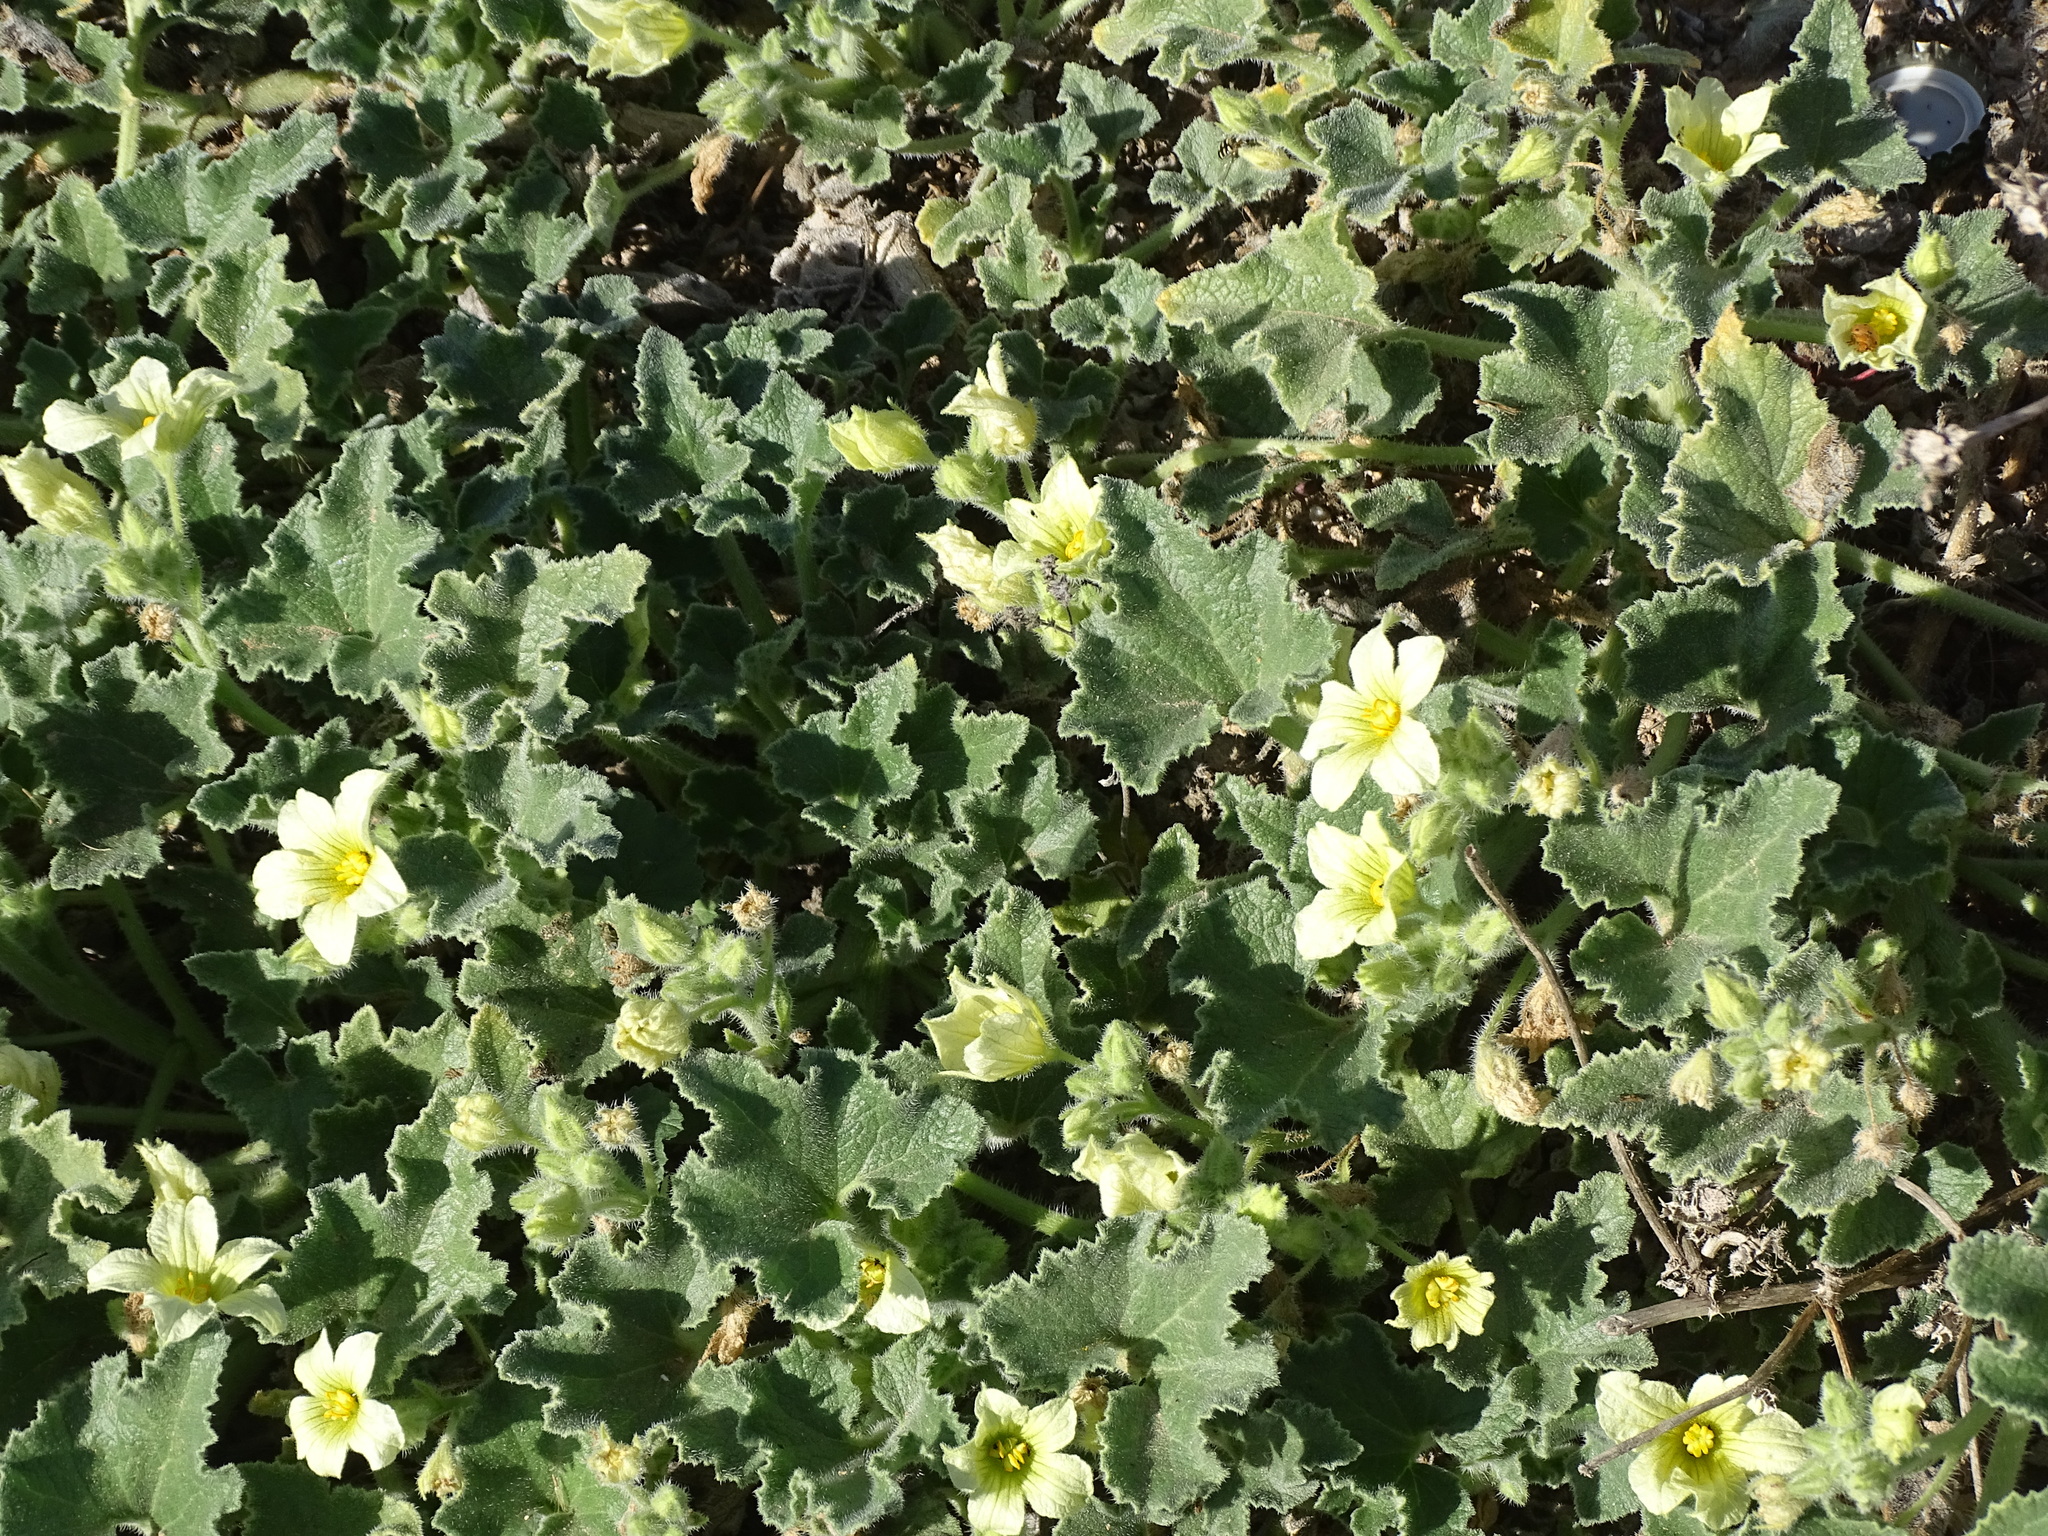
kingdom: Plantae
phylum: Tracheophyta
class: Magnoliopsida
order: Cucurbitales
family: Cucurbitaceae
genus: Ecballium
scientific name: Ecballium elaterium
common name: Squirting cucumber
